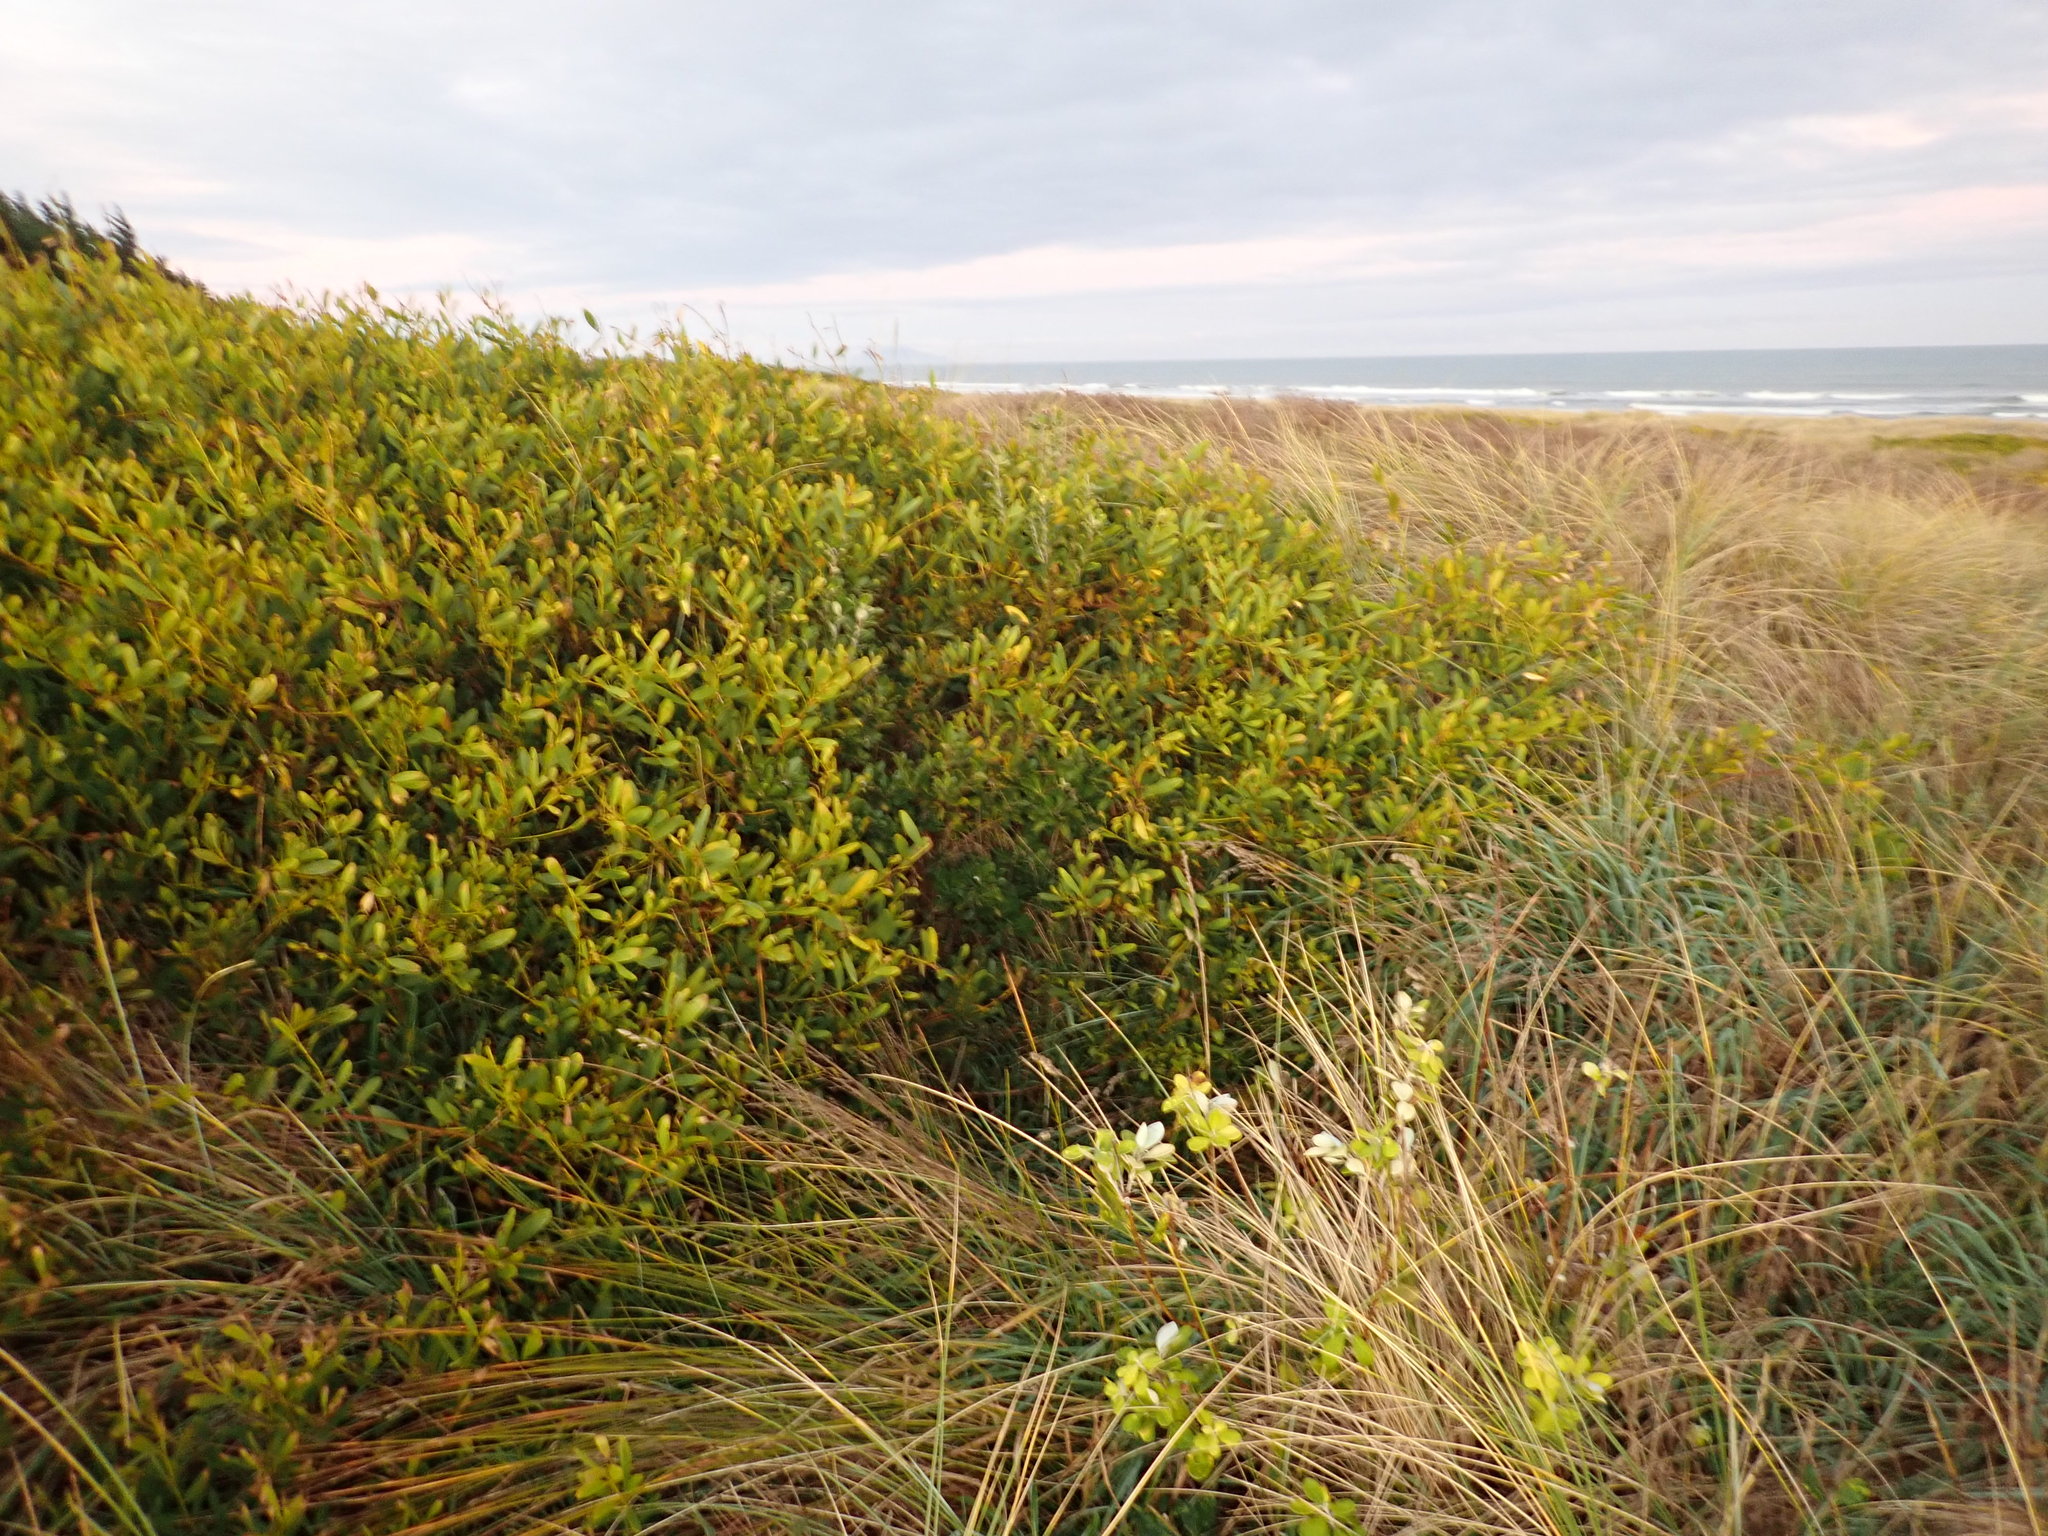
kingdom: Plantae
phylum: Tracheophyta
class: Magnoliopsida
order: Fabales
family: Fabaceae
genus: Acacia
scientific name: Acacia longifolia
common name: Sydney golden wattle
